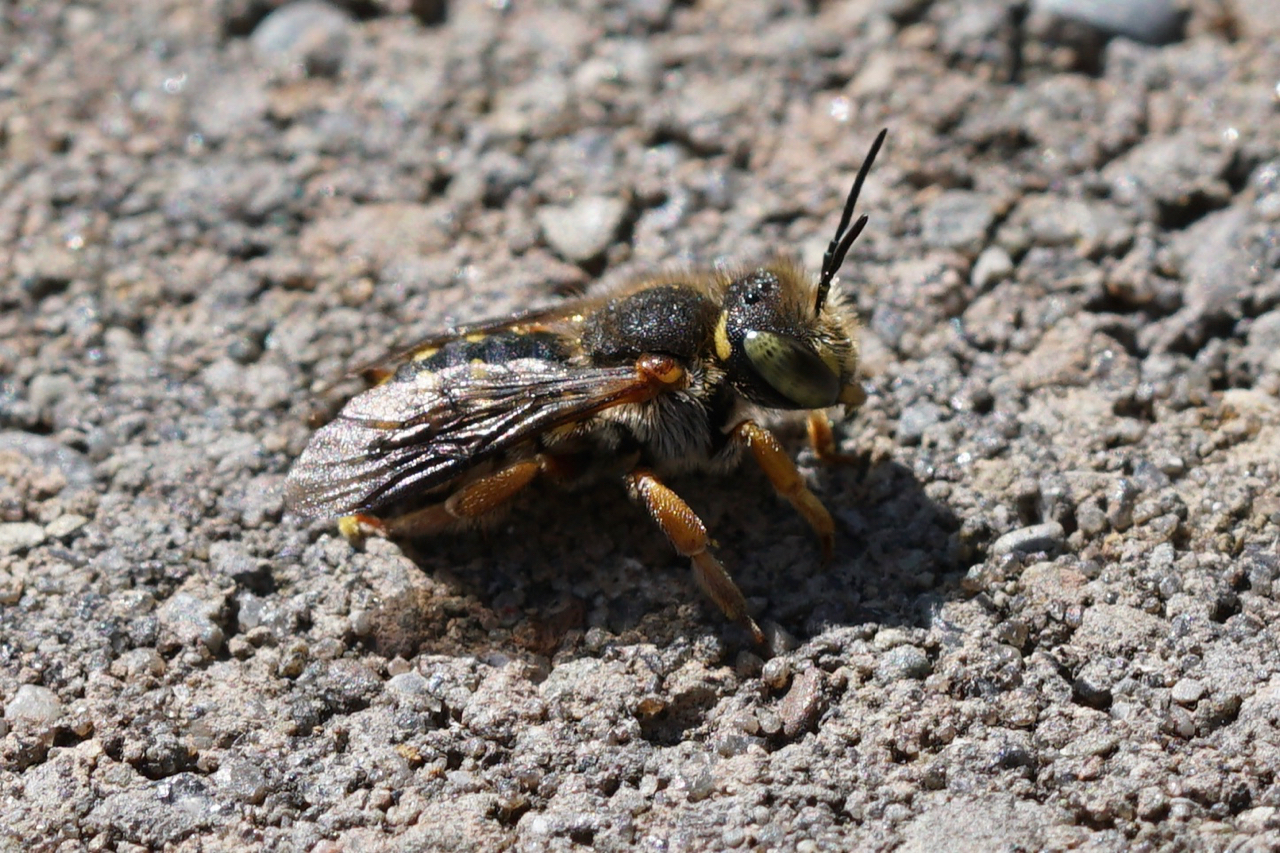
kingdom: Animalia
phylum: Arthropoda
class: Insecta
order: Hymenoptera
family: Megachilidae
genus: Anthidium
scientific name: Anthidium oblongatum
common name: Oblong wool carder bee
